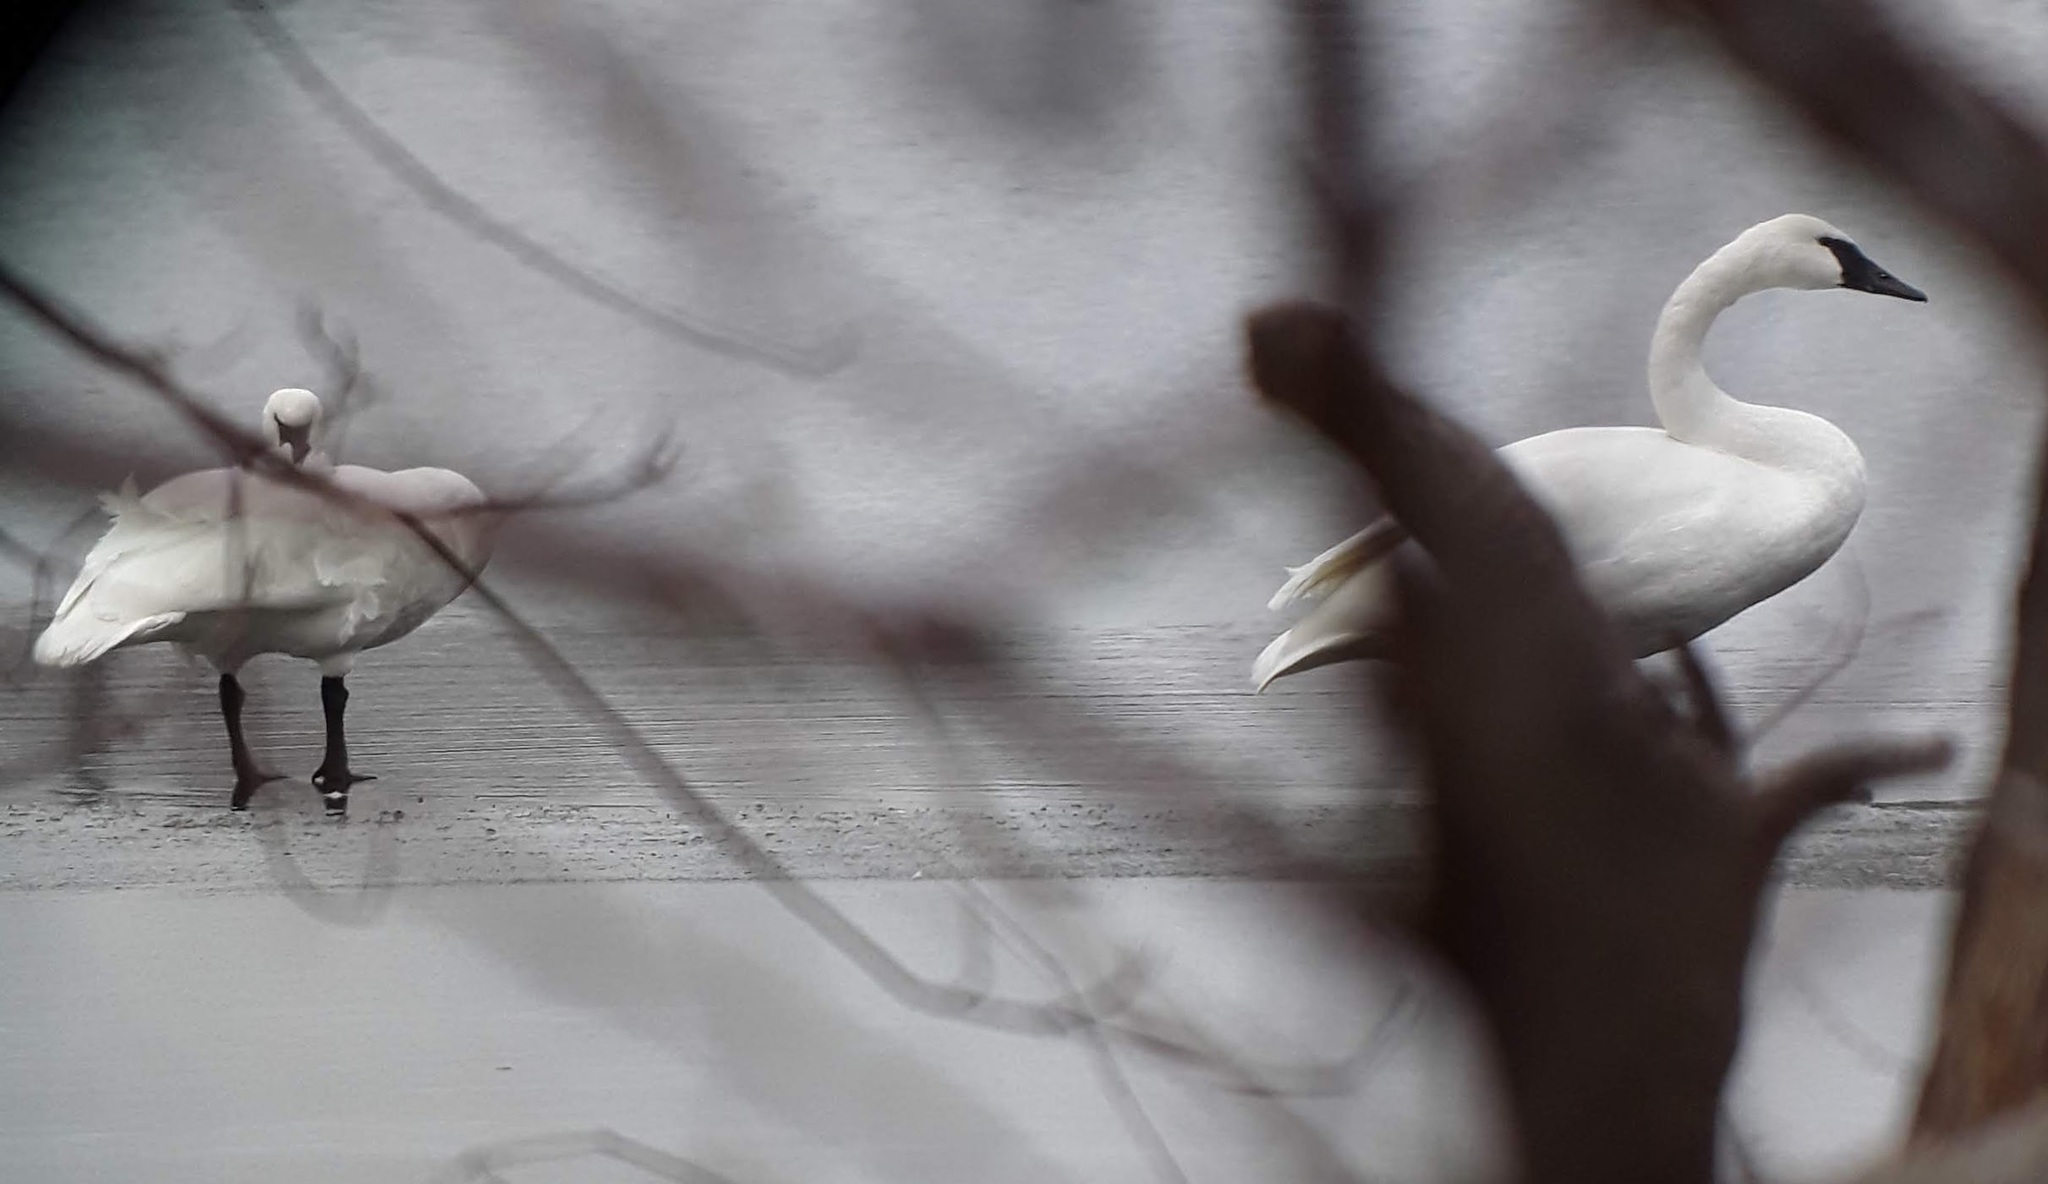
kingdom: Animalia
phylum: Chordata
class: Aves
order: Anseriformes
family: Anatidae
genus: Cygnus
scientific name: Cygnus buccinator
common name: Trumpeter swan
